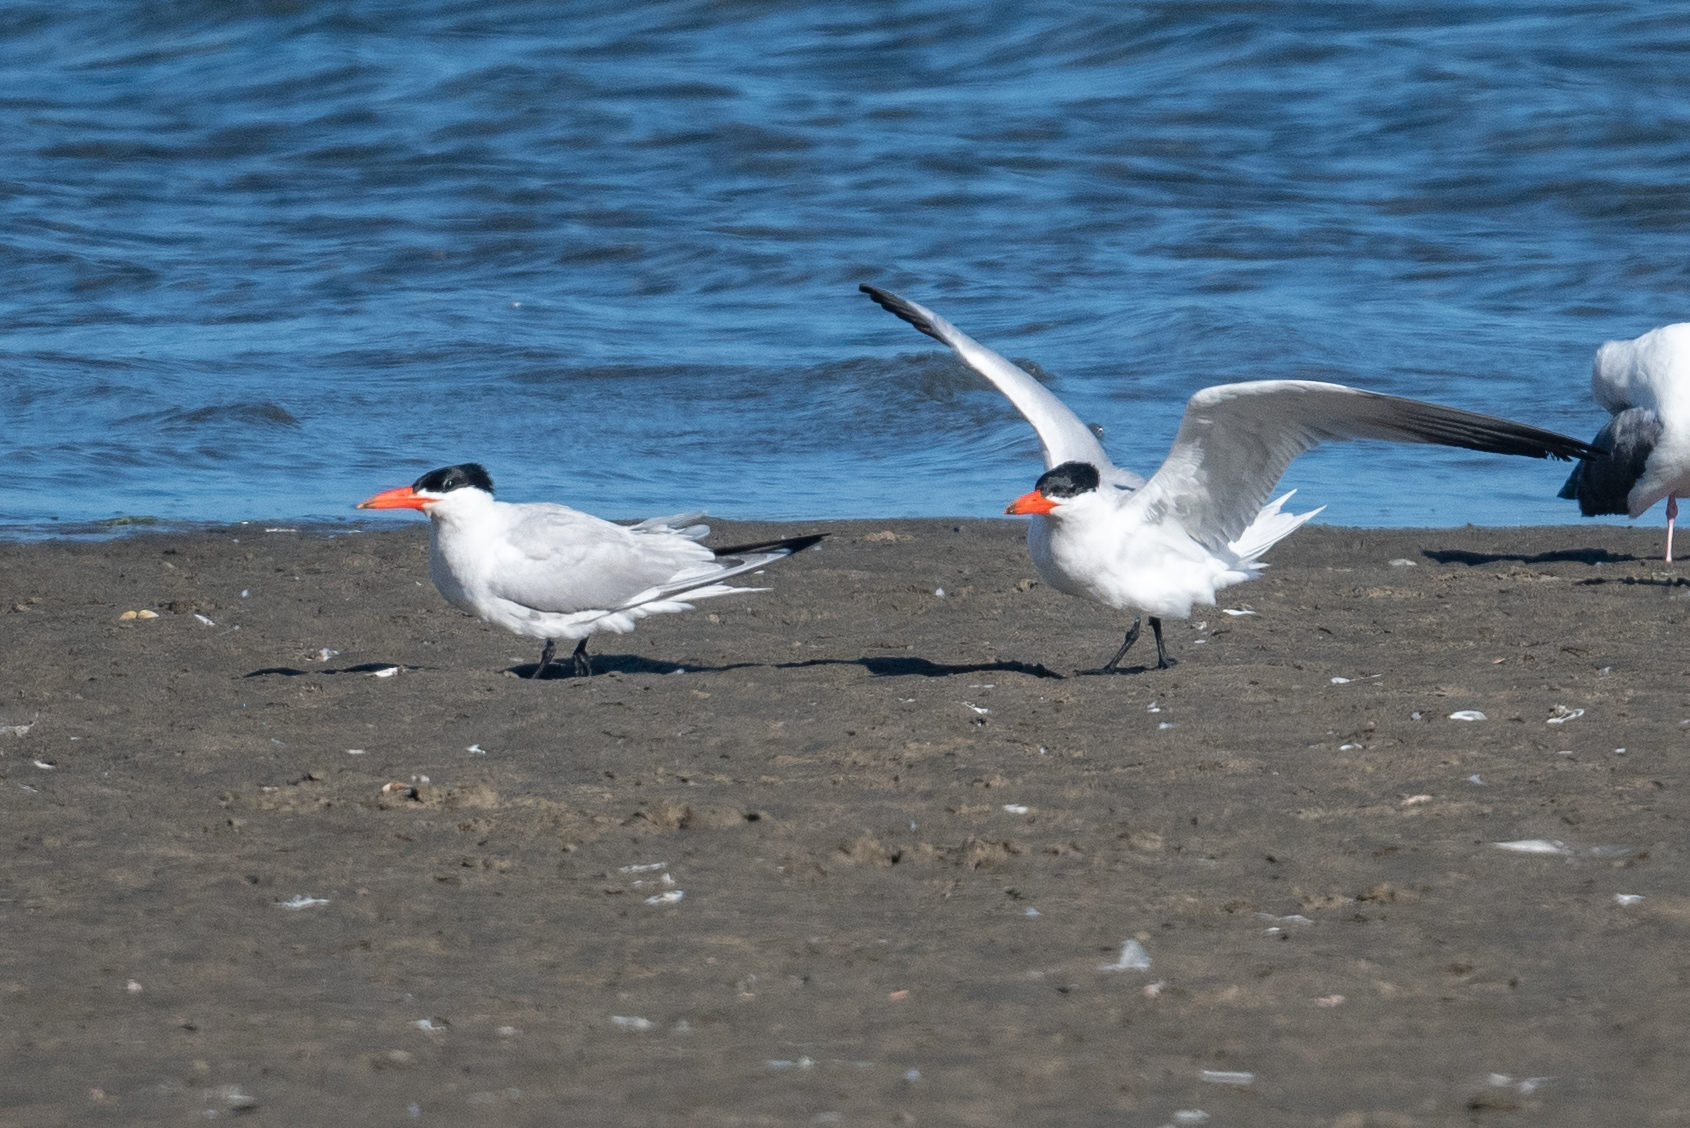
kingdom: Animalia
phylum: Chordata
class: Aves
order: Charadriiformes
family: Laridae
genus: Hydroprogne
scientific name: Hydroprogne caspia
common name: Caspian tern
